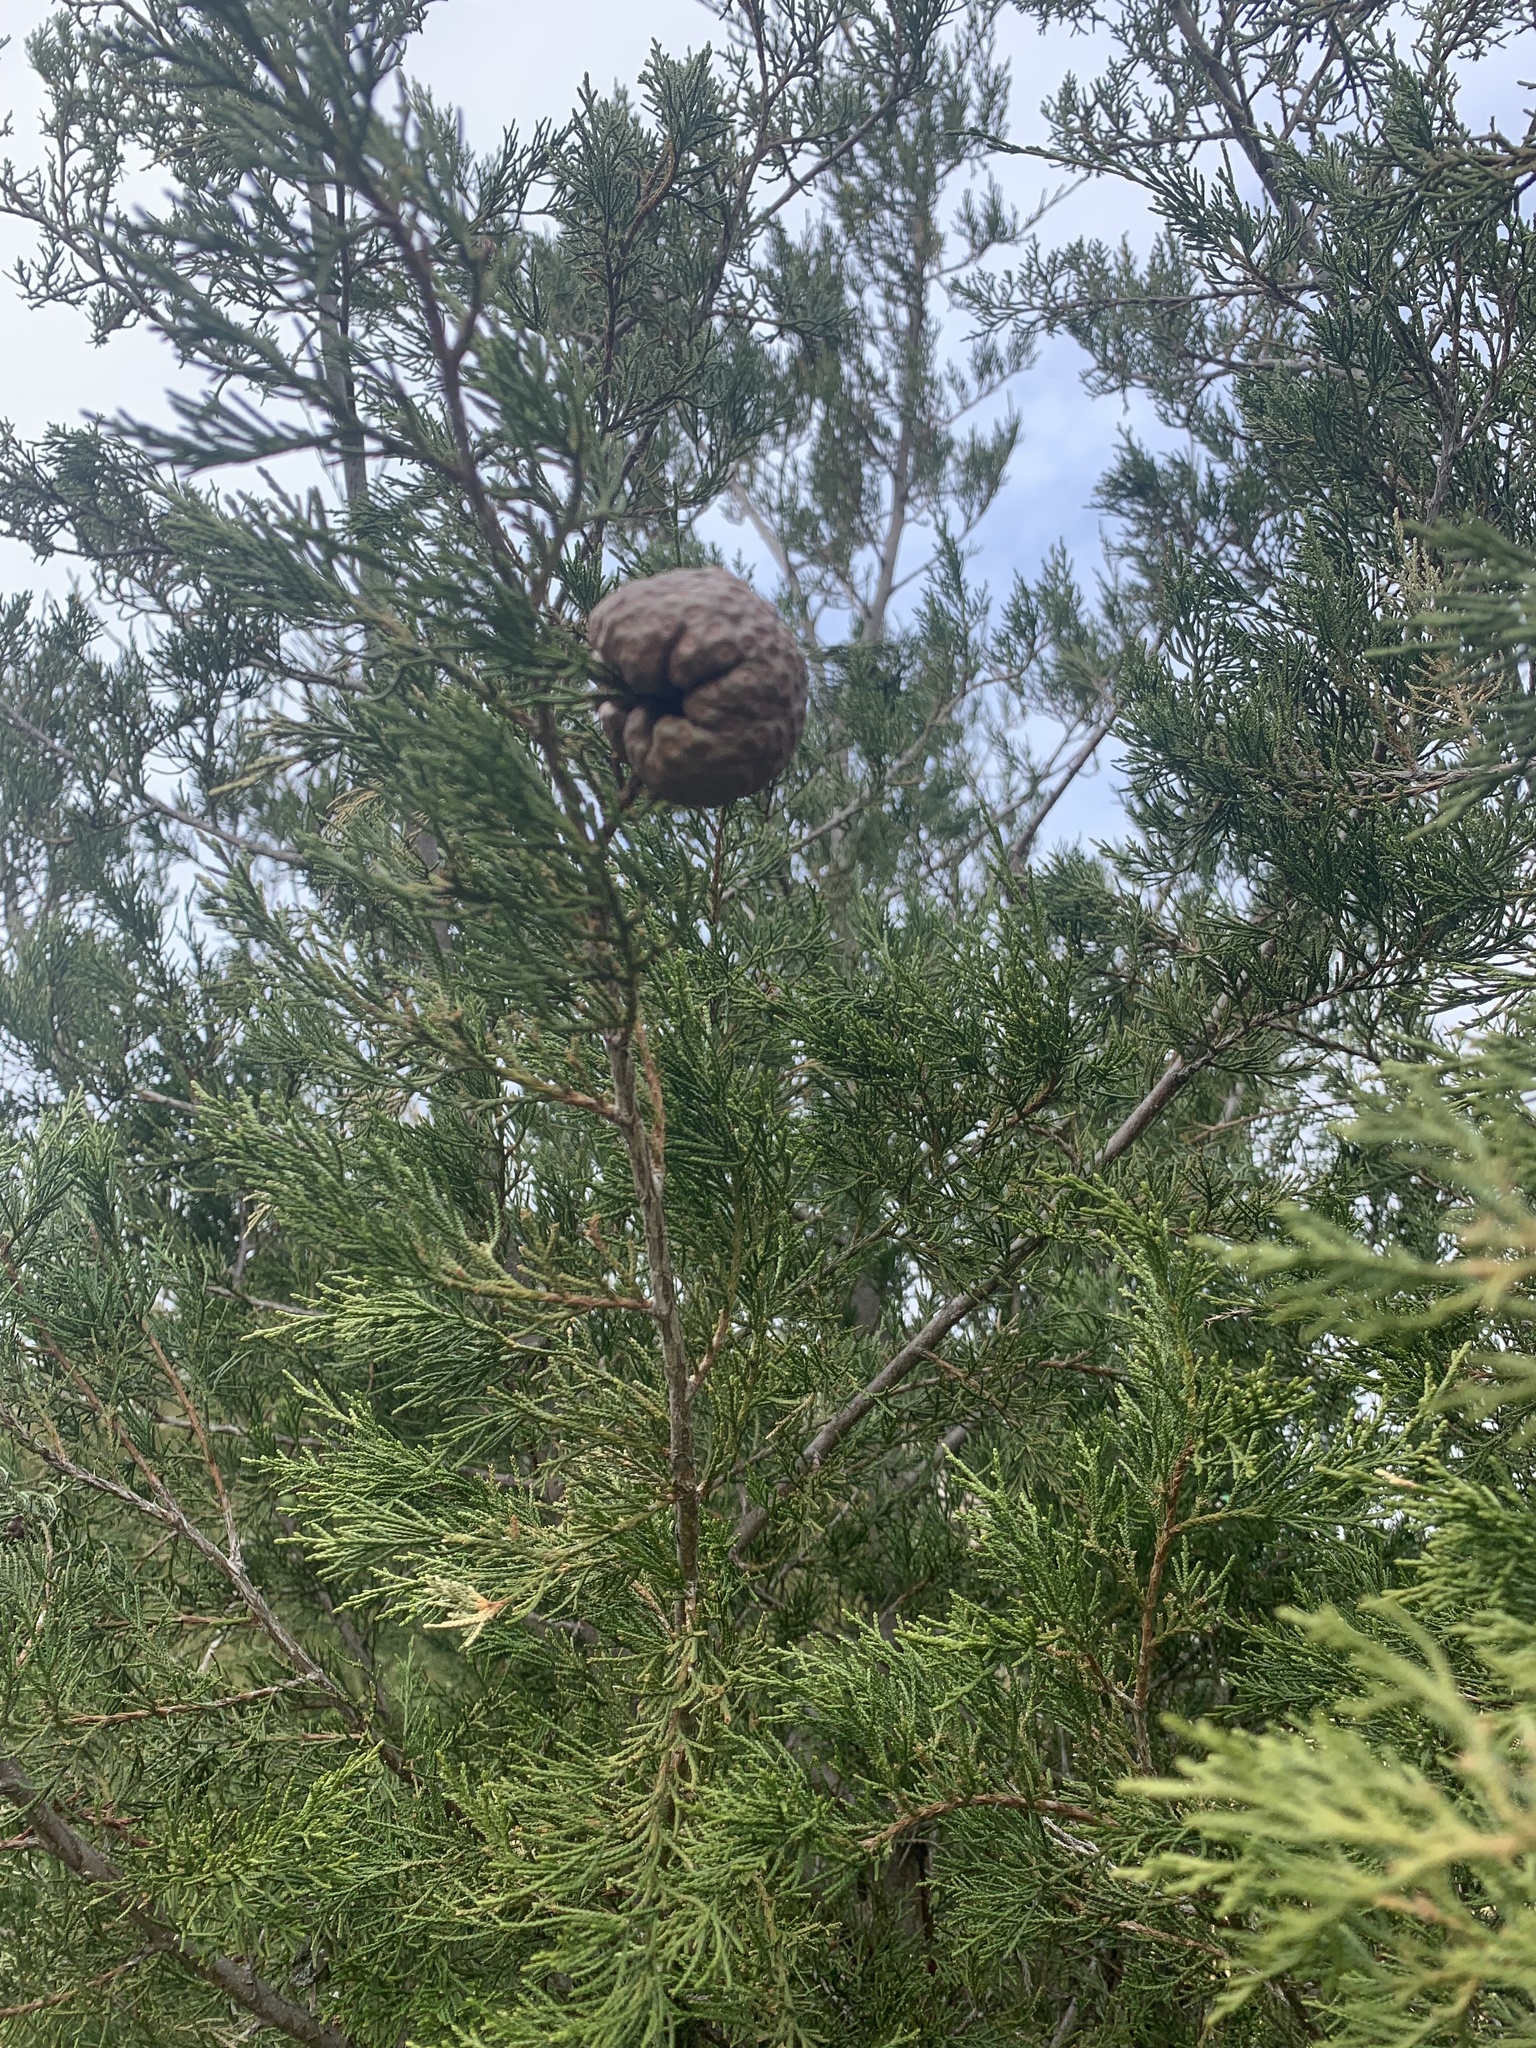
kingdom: Fungi
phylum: Basidiomycota
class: Pucciniomycetes
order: Pucciniales
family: Gymnosporangiaceae
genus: Gymnosporangium
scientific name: Gymnosporangium juniperi-virginianae
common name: Juniper-apple rust
